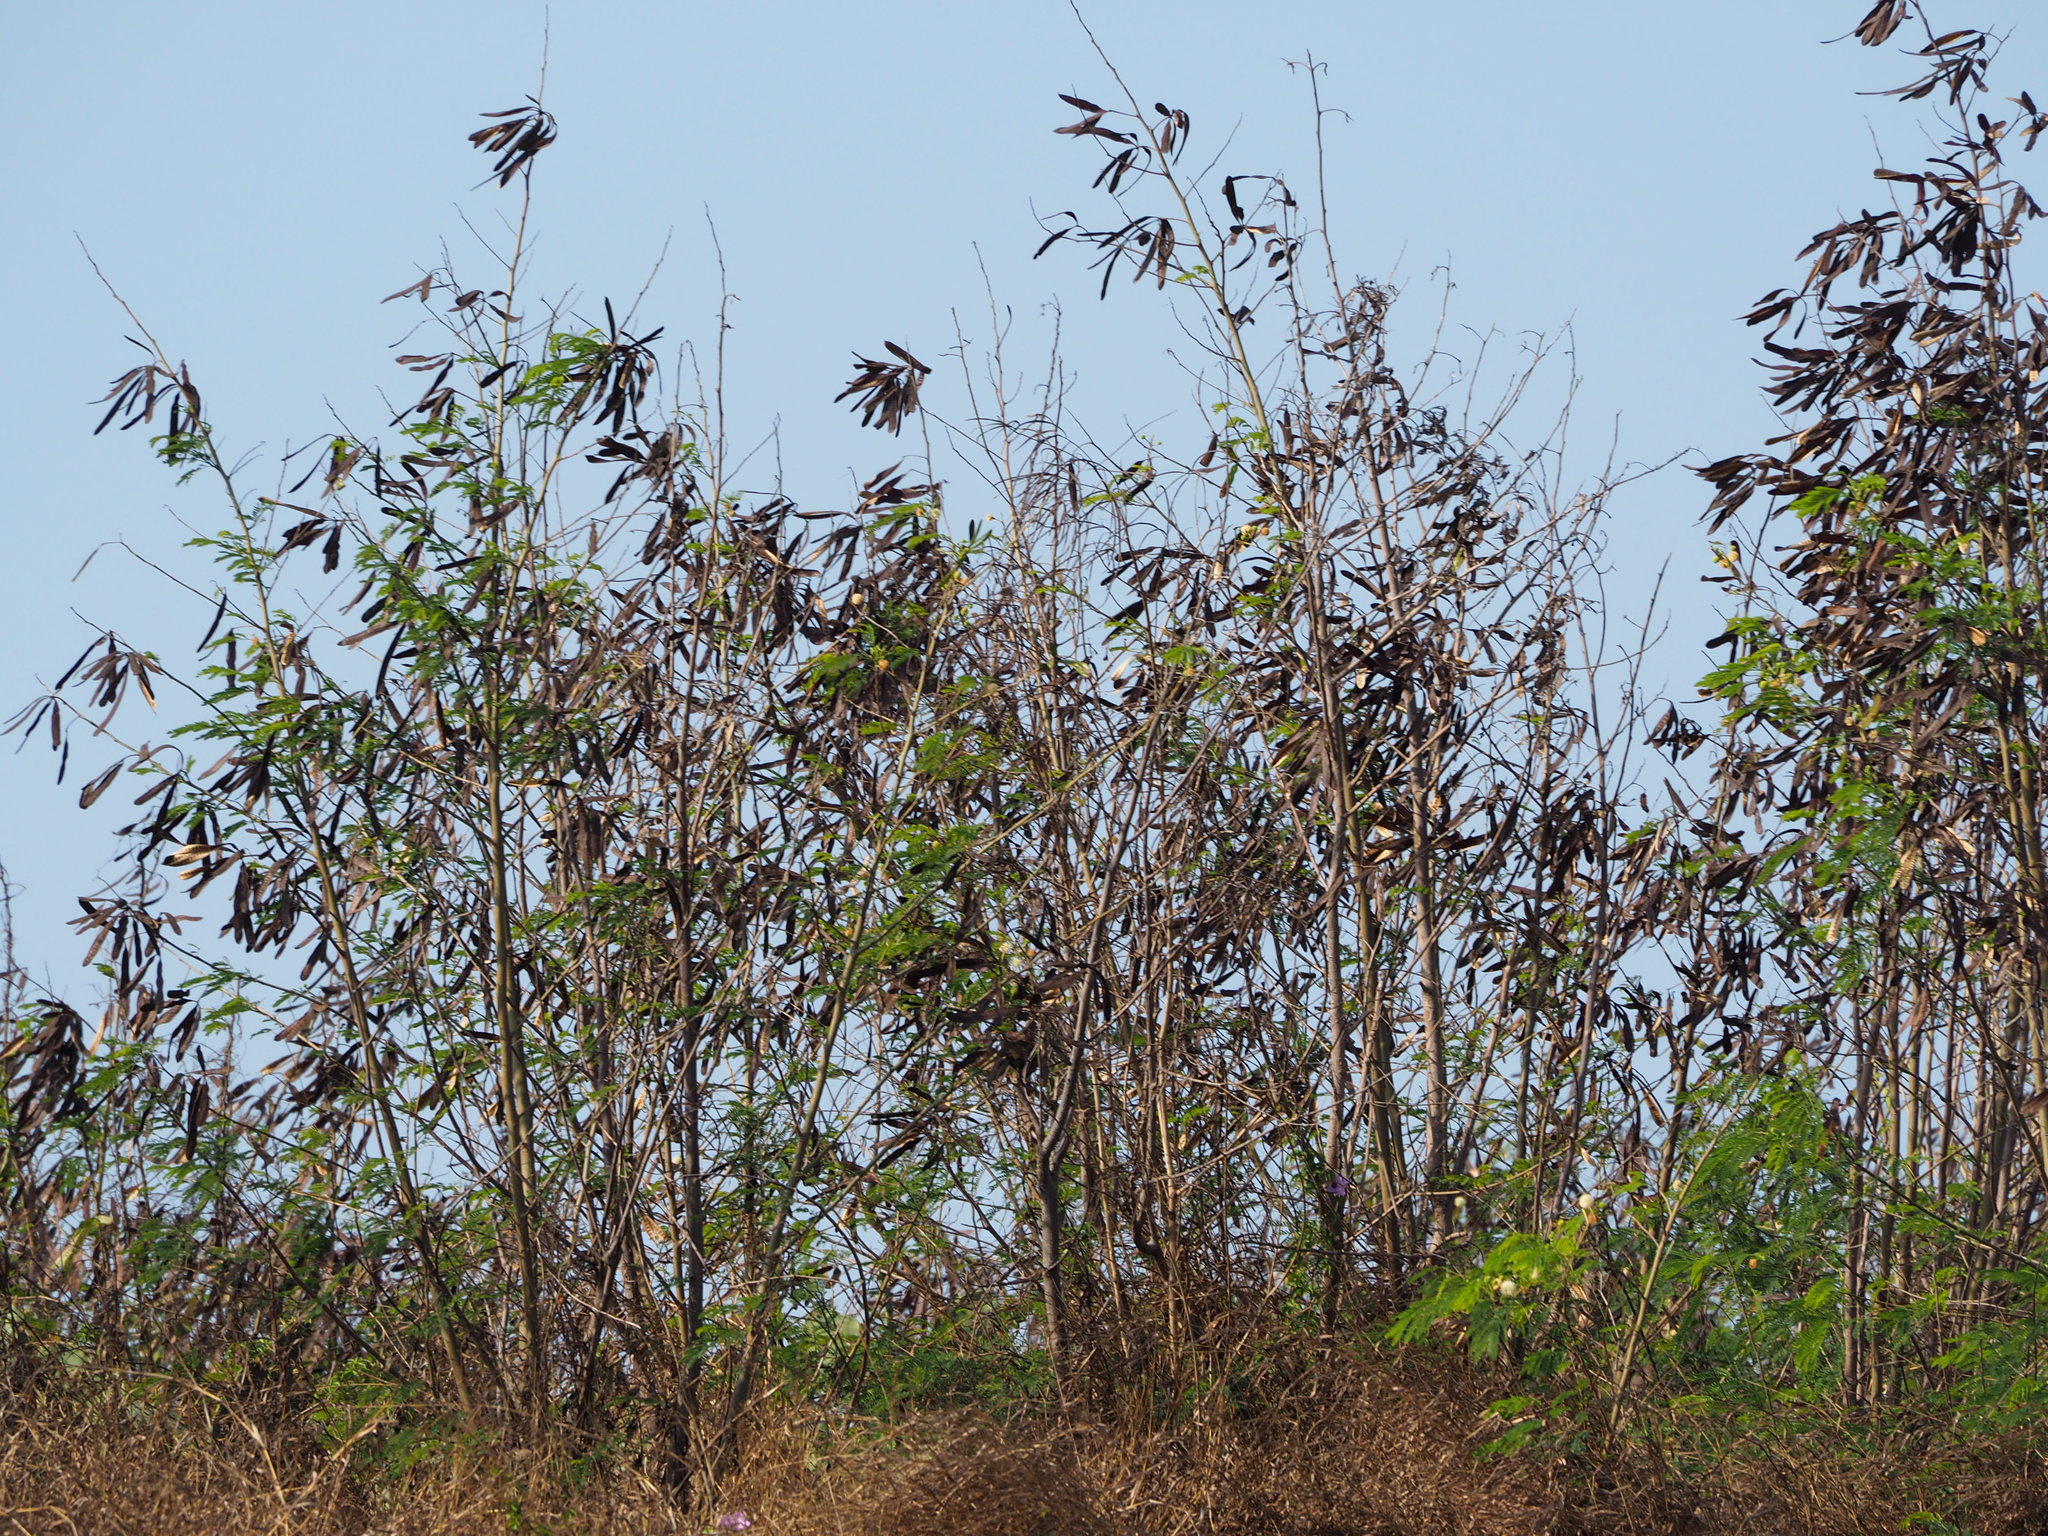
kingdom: Plantae
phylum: Tracheophyta
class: Magnoliopsida
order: Fabales
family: Fabaceae
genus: Leucaena
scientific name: Leucaena leucocephala
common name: White leadtree
